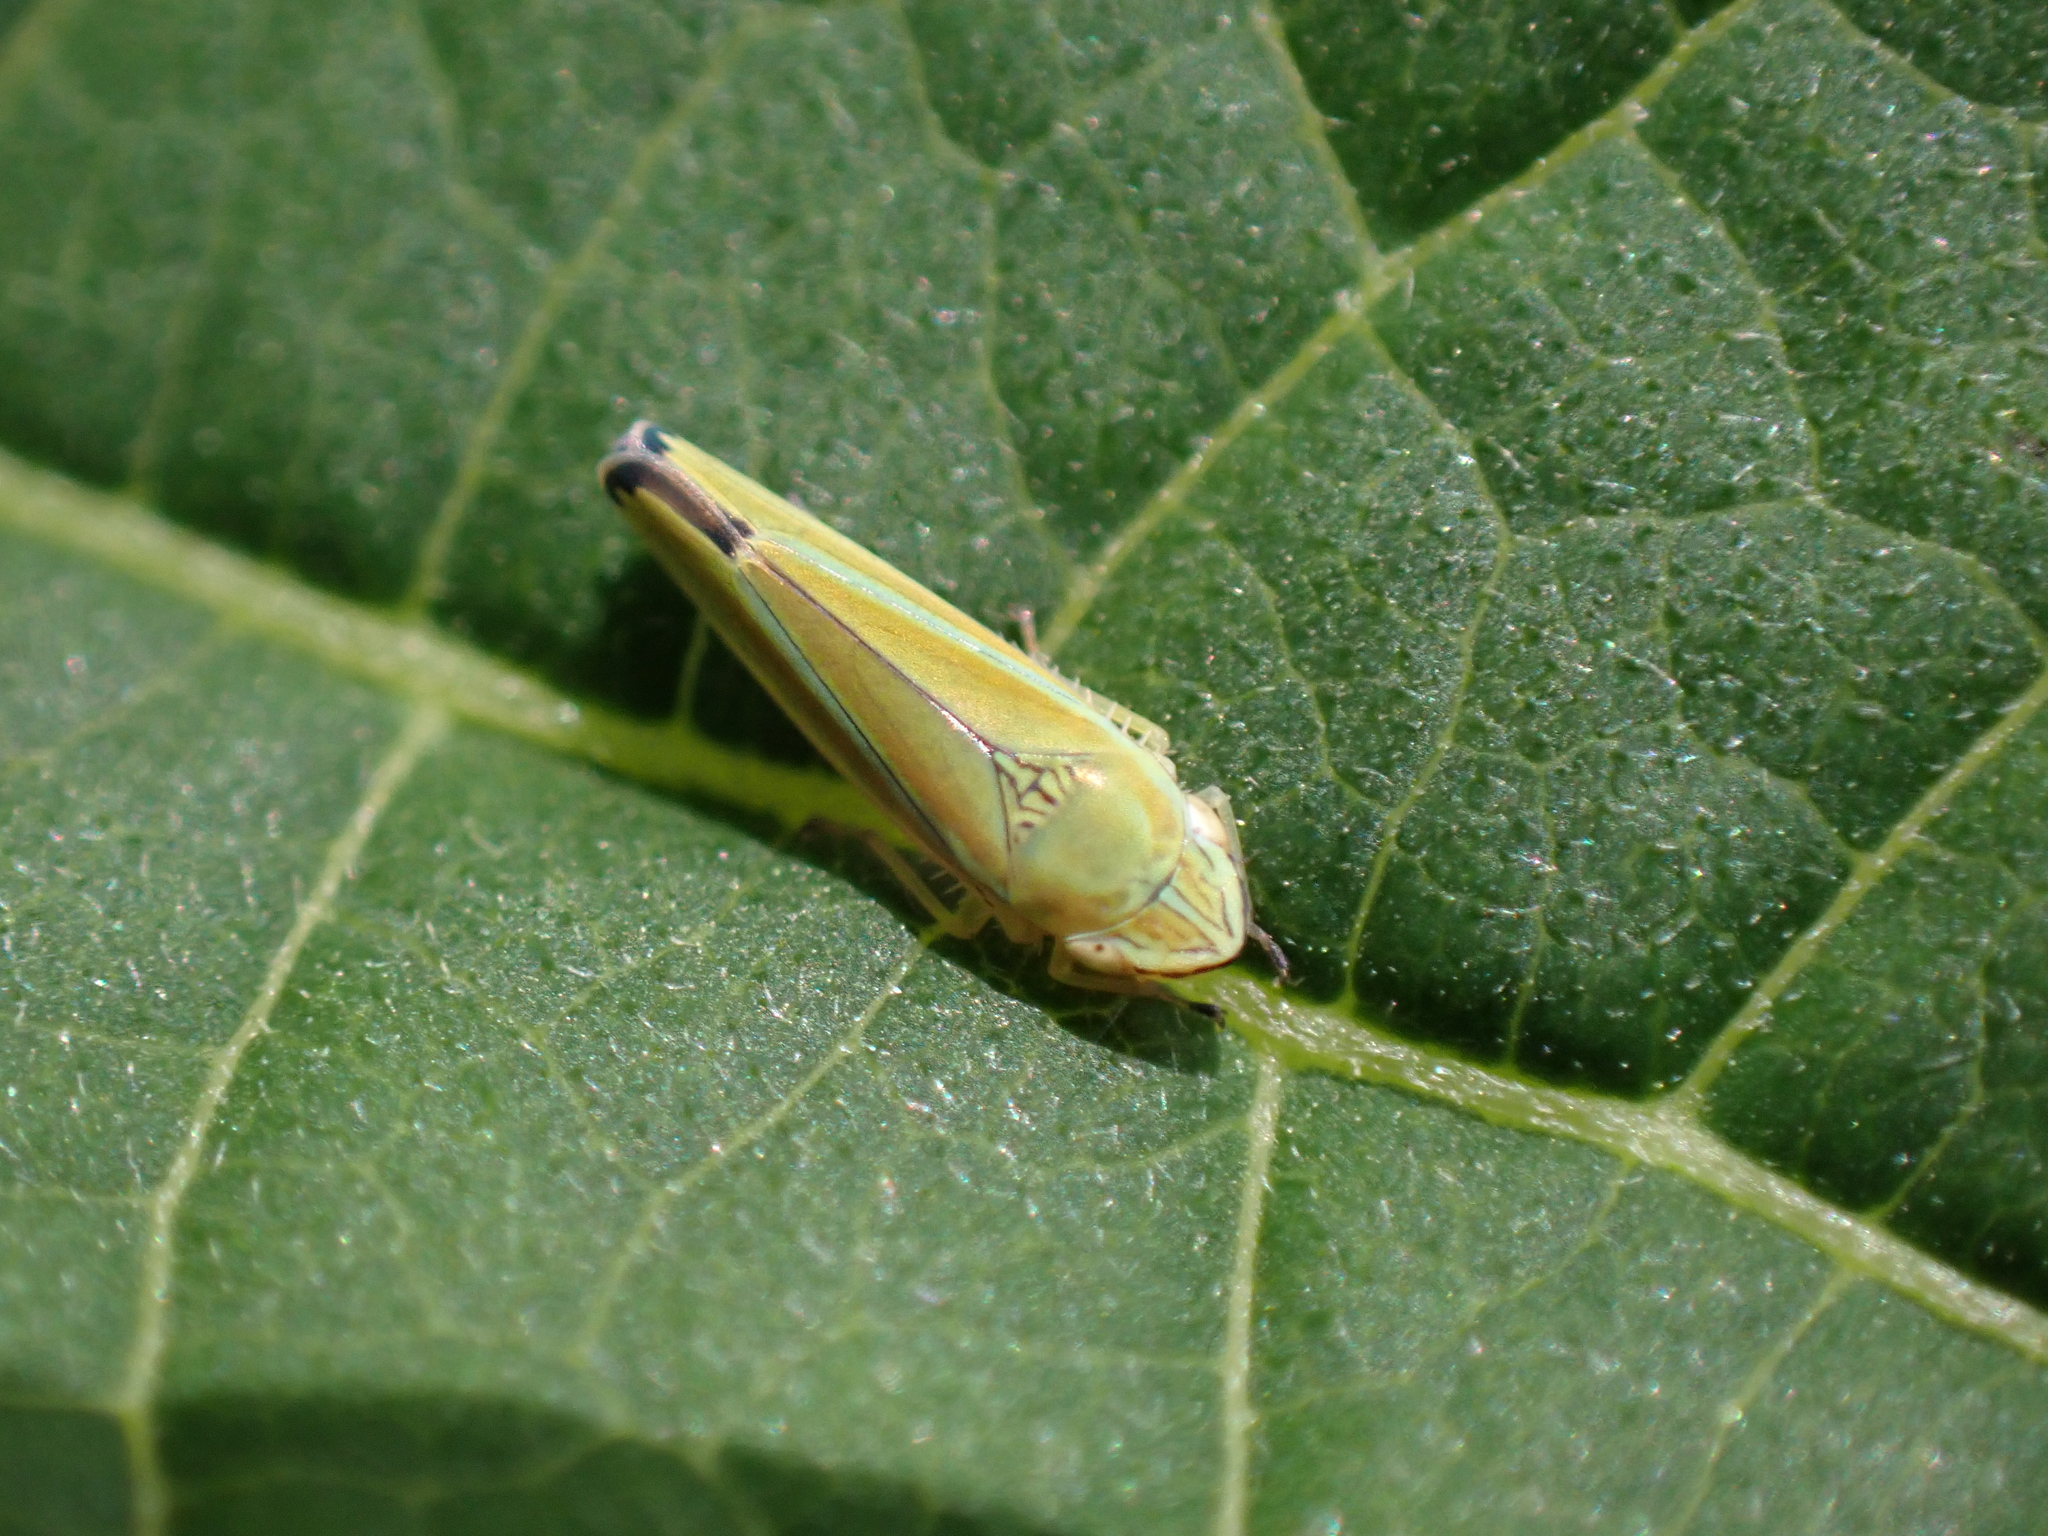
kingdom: Animalia
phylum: Arthropoda
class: Insecta
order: Hemiptera
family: Cicadellidae
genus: Graphocephala
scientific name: Graphocephala versuta
